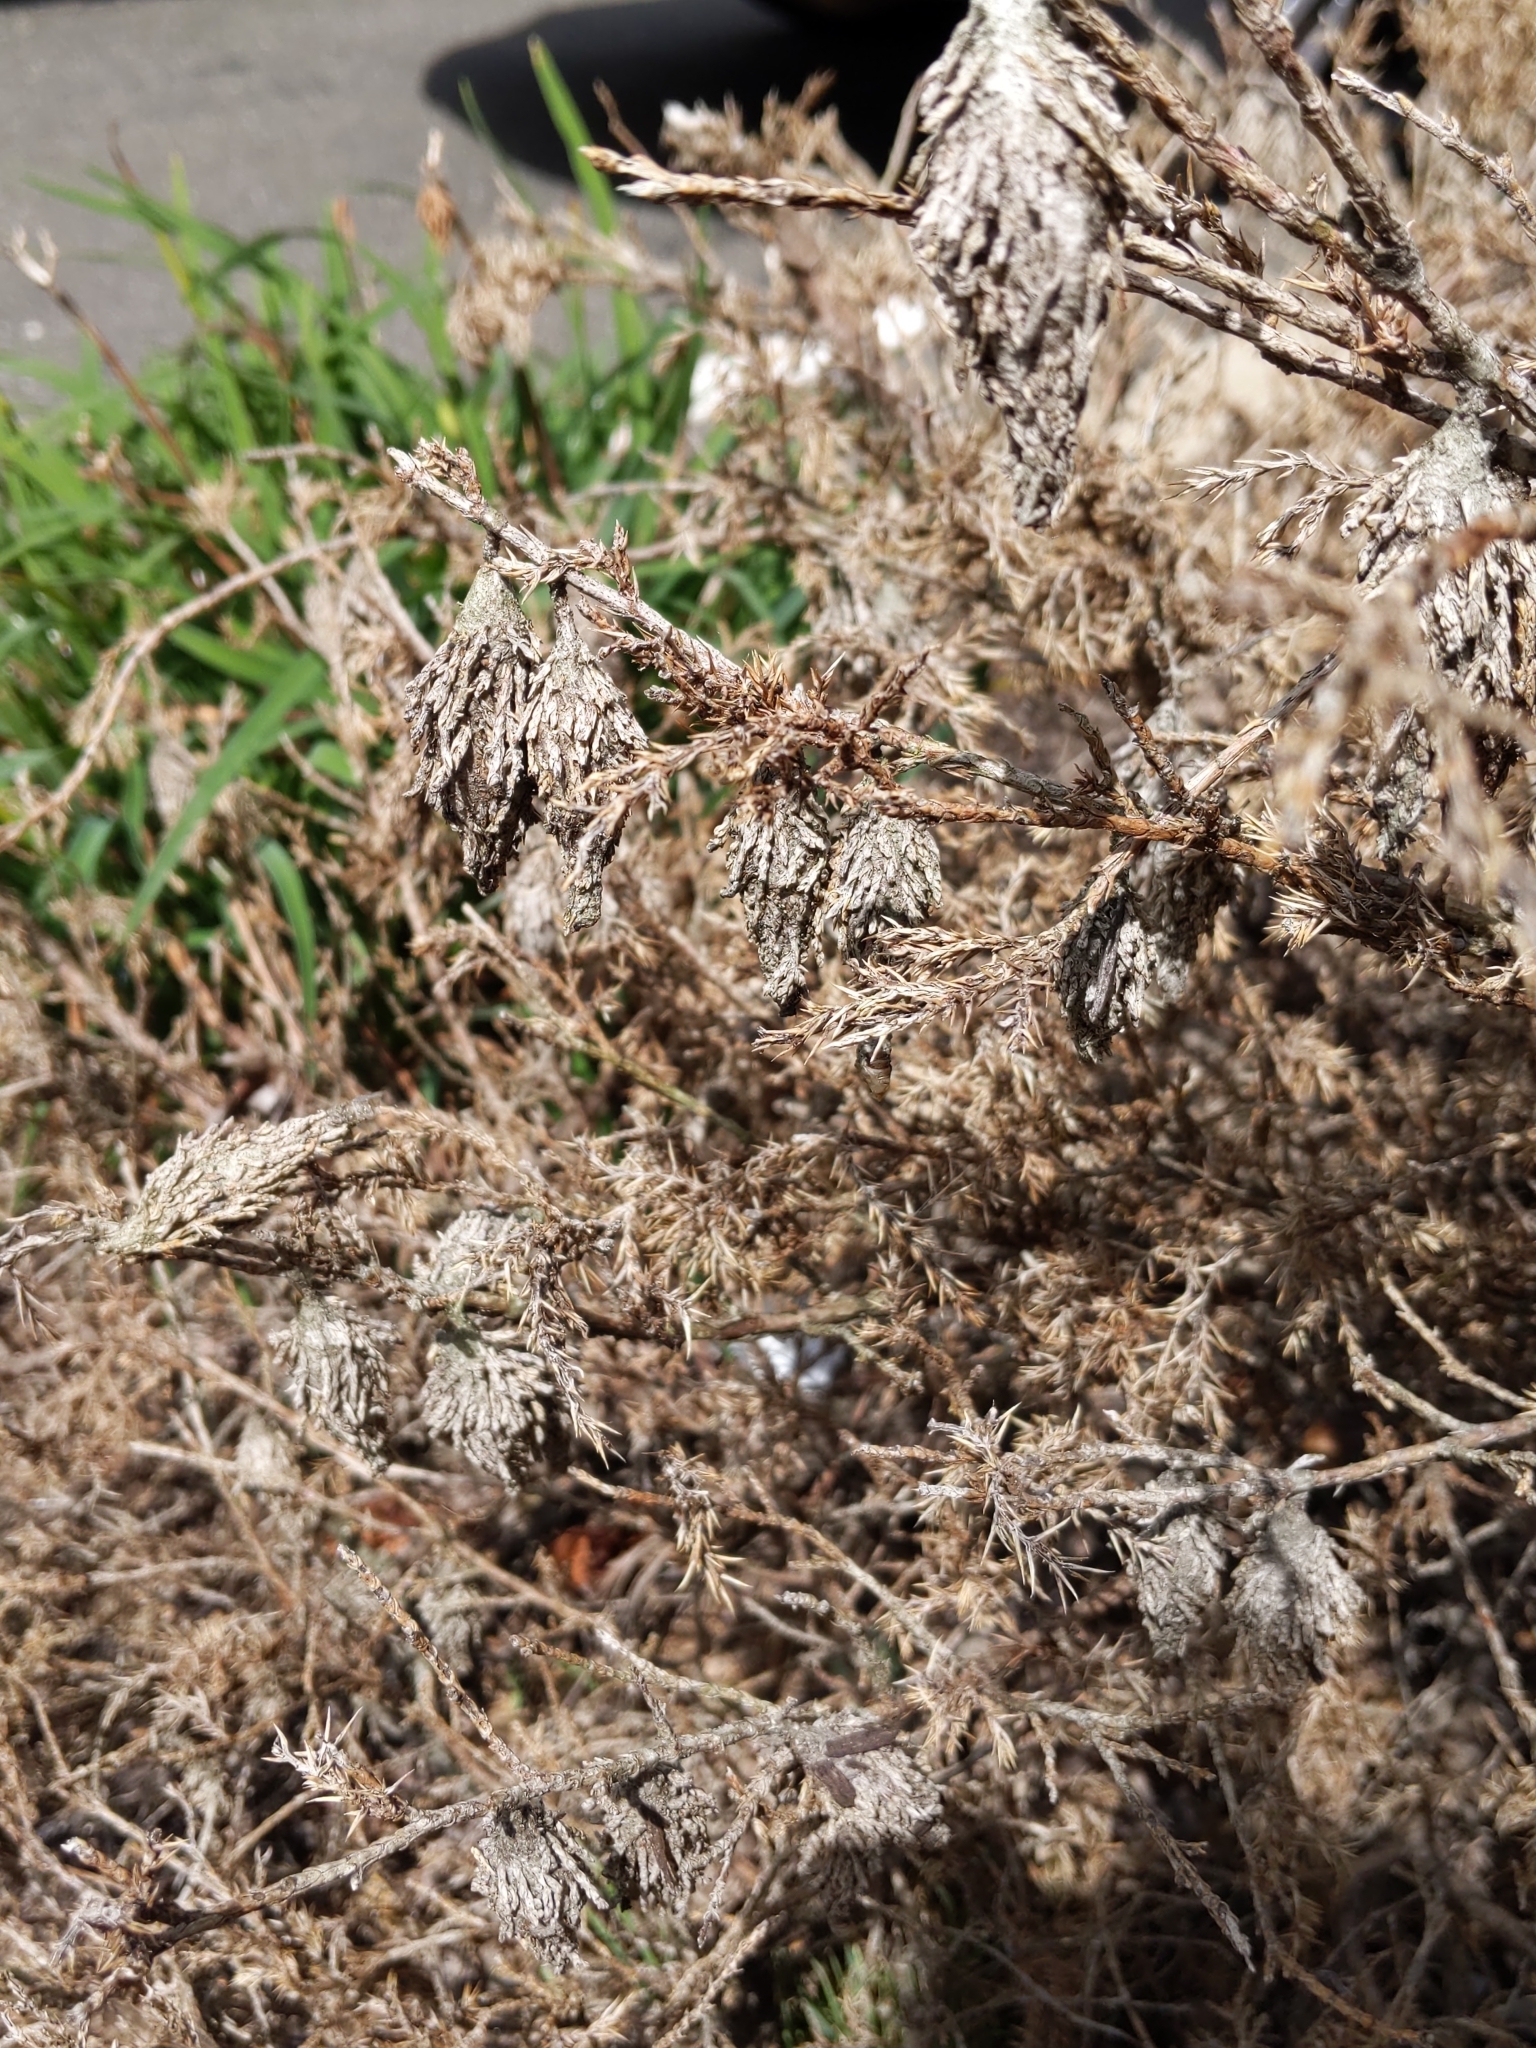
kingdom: Animalia
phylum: Arthropoda
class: Insecta
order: Lepidoptera
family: Psychidae
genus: Thyridopteryx
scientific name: Thyridopteryx ephemeraeformis
